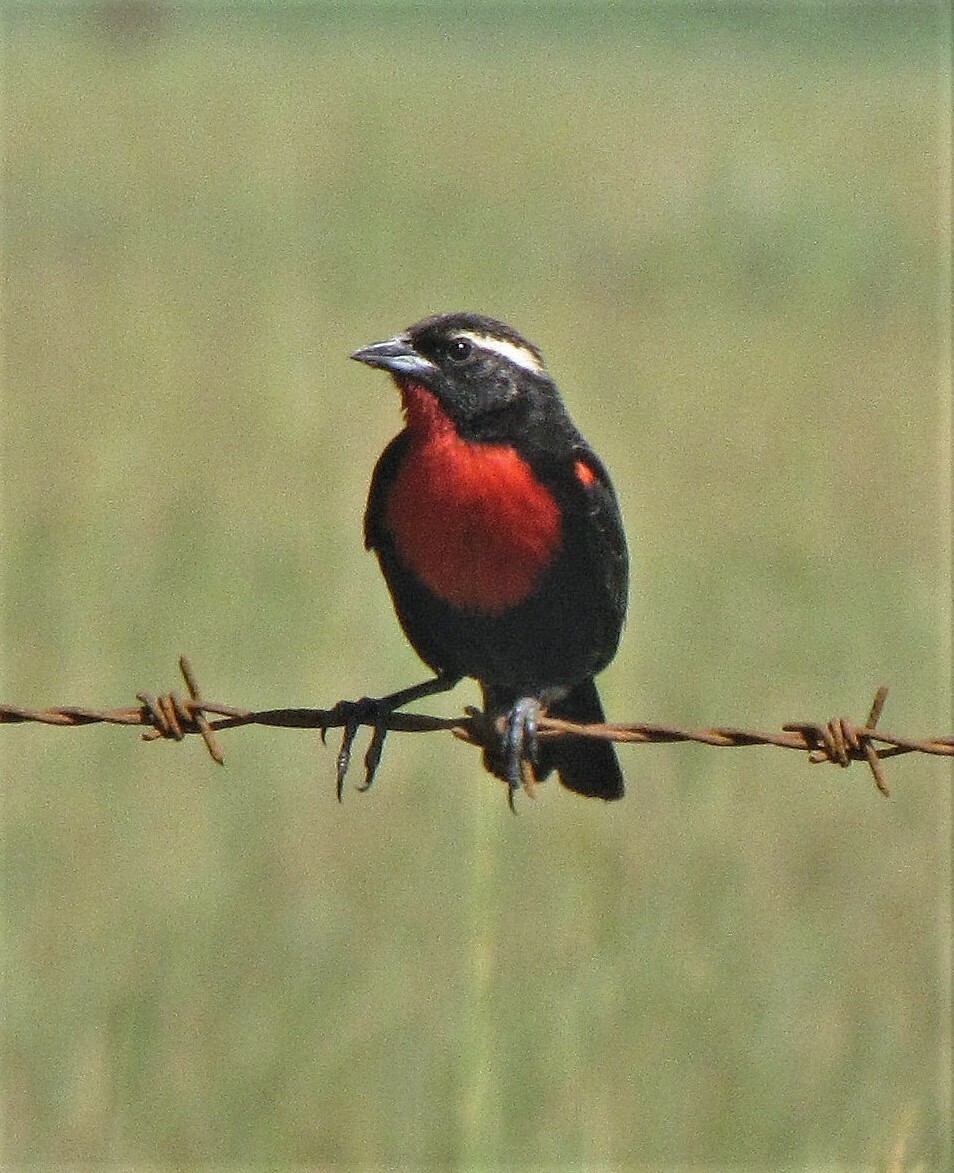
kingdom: Animalia
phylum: Chordata
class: Aves
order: Passeriformes
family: Icteridae
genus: Sturnella
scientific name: Sturnella superciliaris
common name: White-browed blackbird
